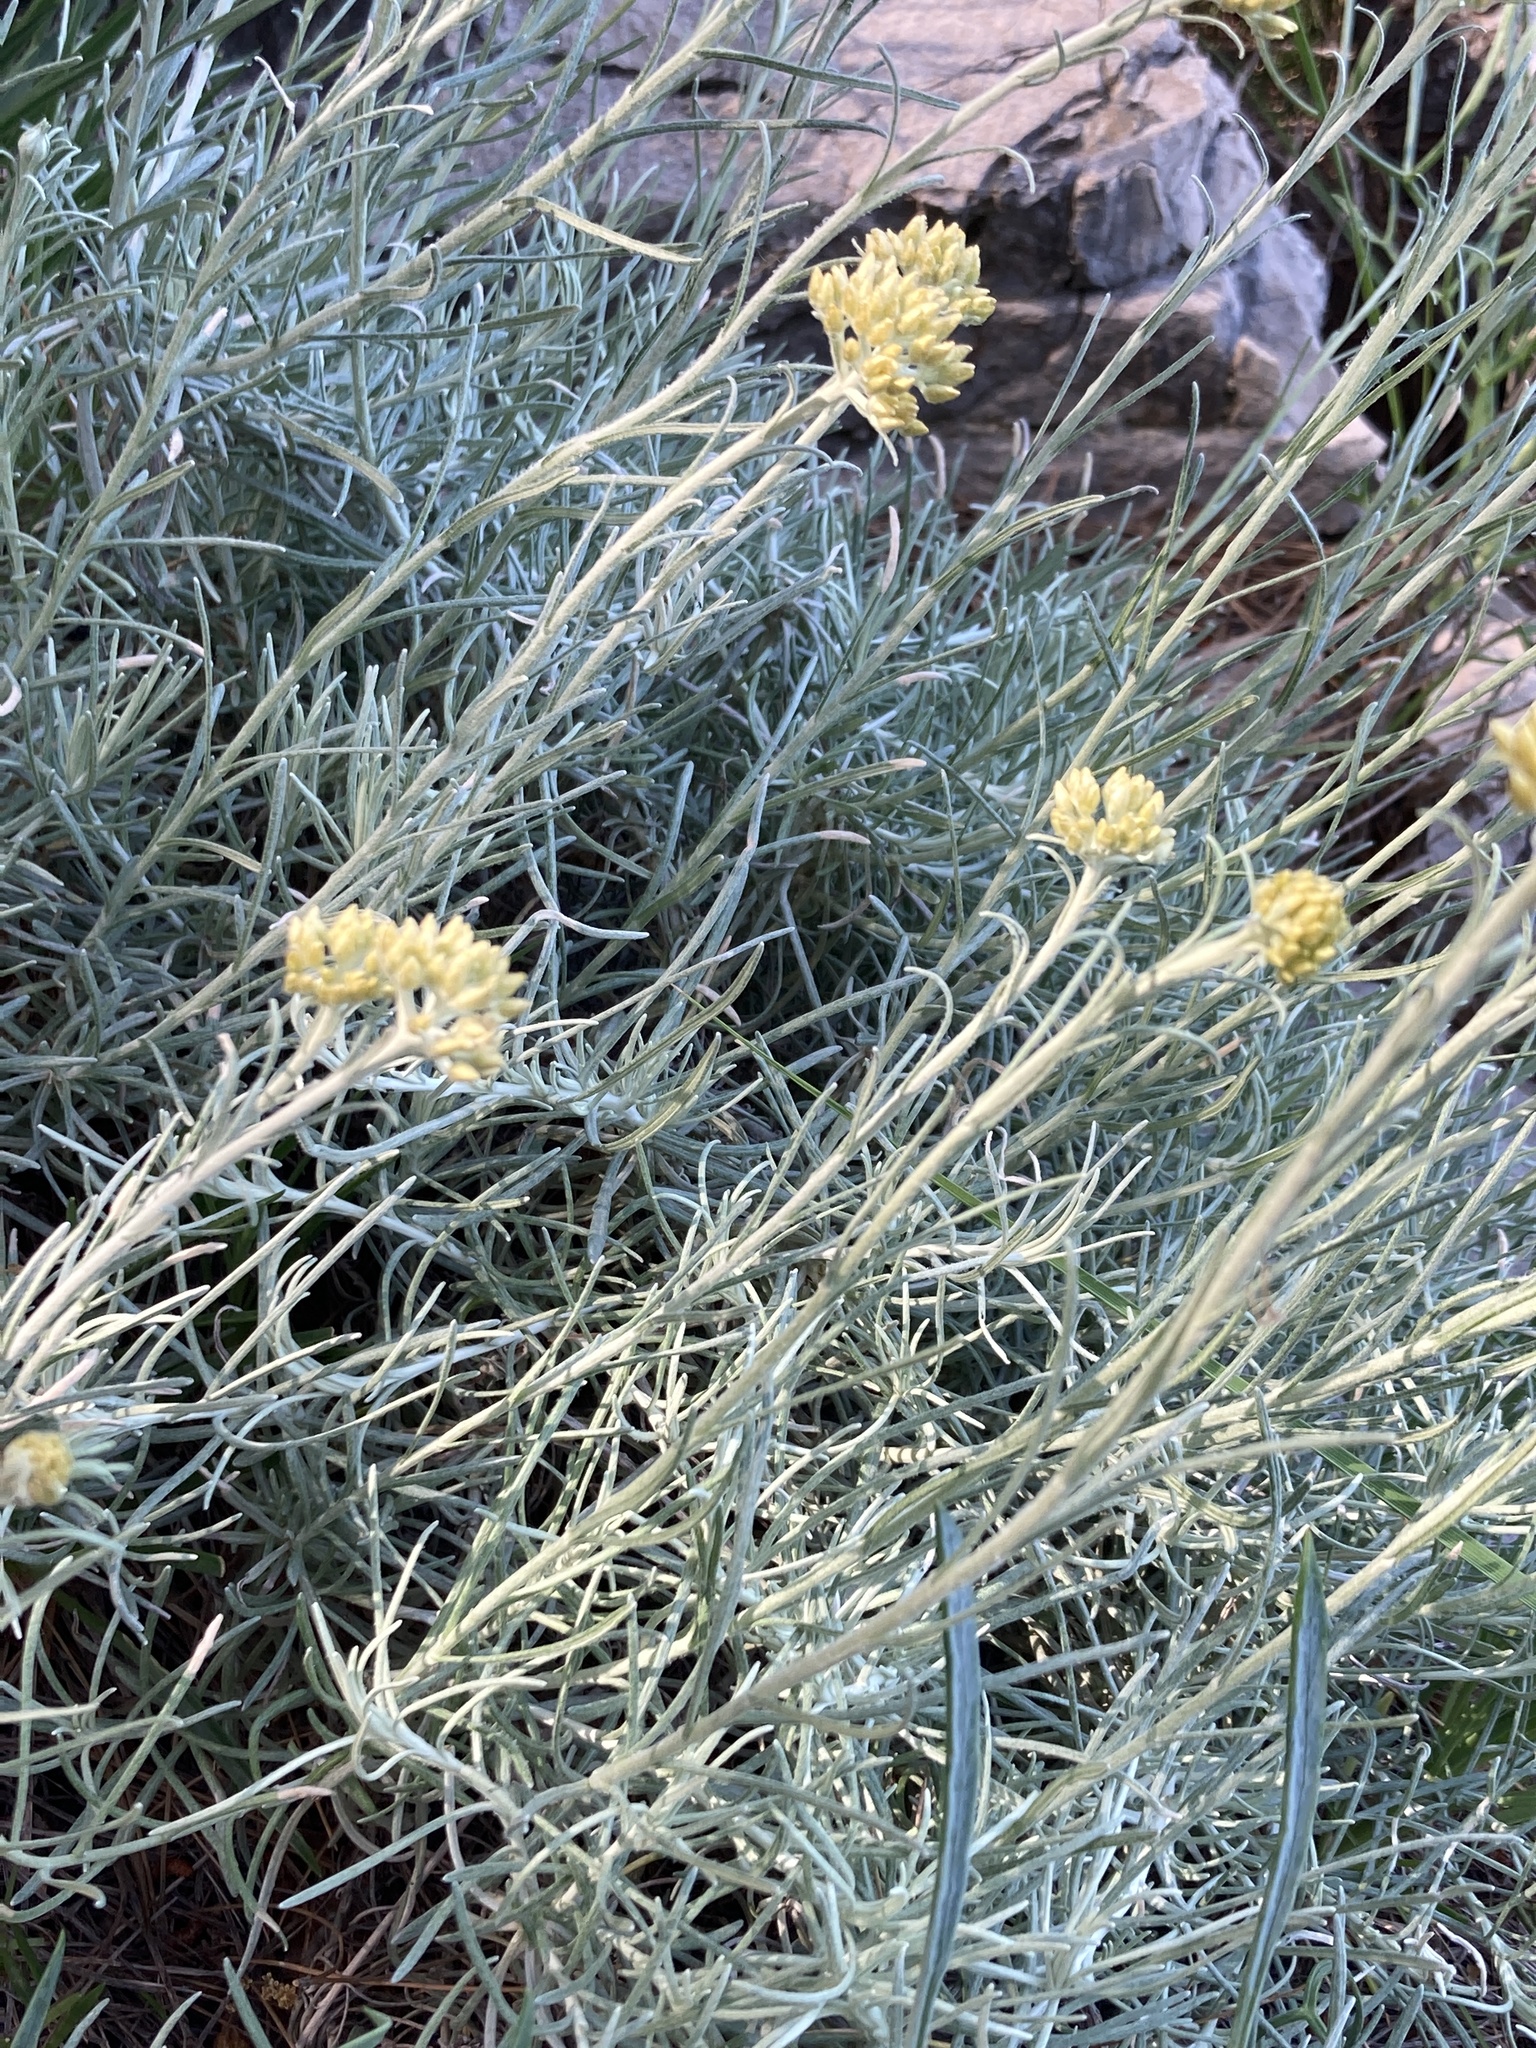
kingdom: Plantae
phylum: Tracheophyta
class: Magnoliopsida
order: Asterales
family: Asteraceae
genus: Helichrysum
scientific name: Helichrysum italicum
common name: Curryplant
